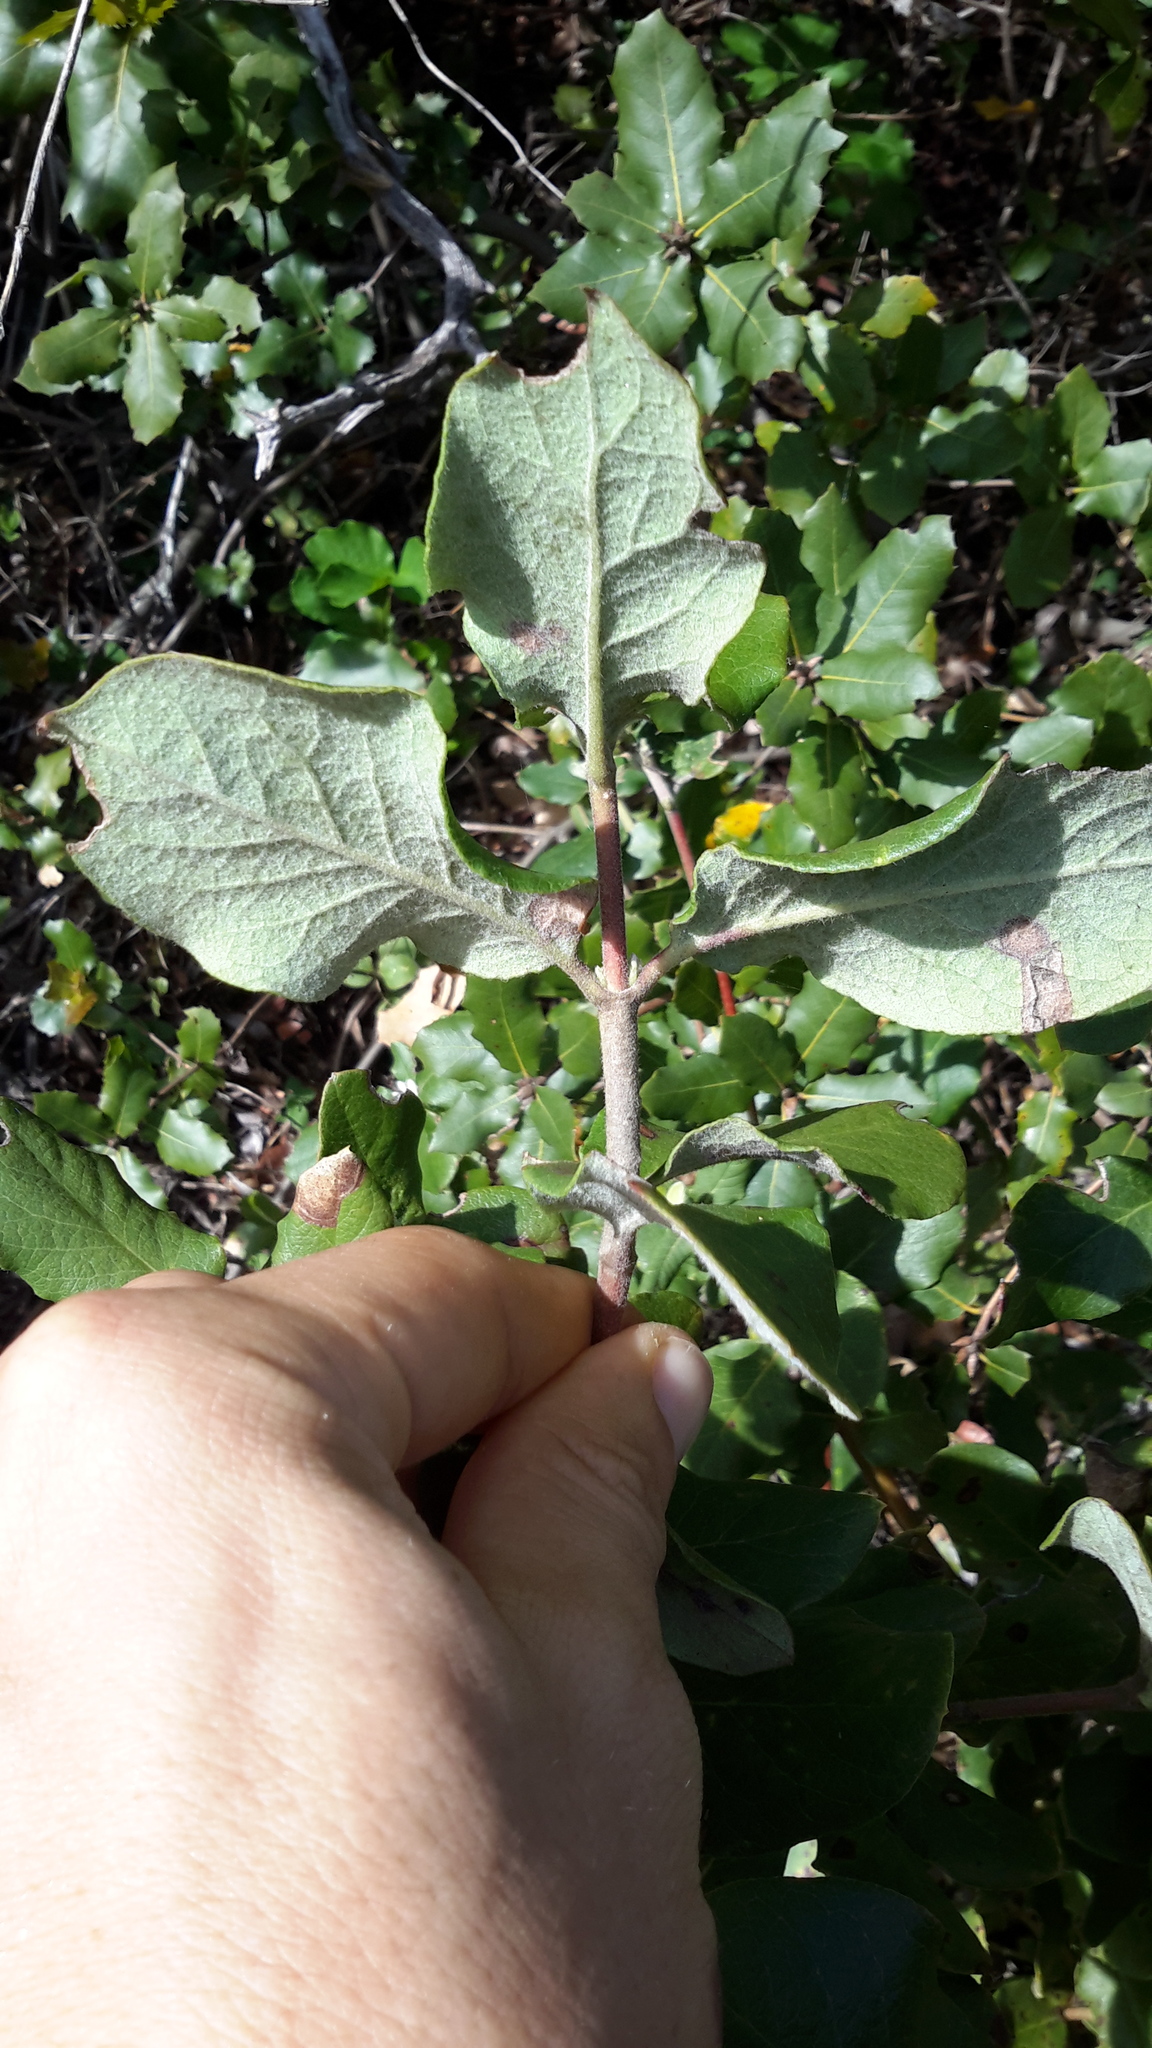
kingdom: Plantae
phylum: Tracheophyta
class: Magnoliopsida
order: Garryales
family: Garryaceae
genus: Garrya
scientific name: Garrya elliptica
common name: Silk-tassel
